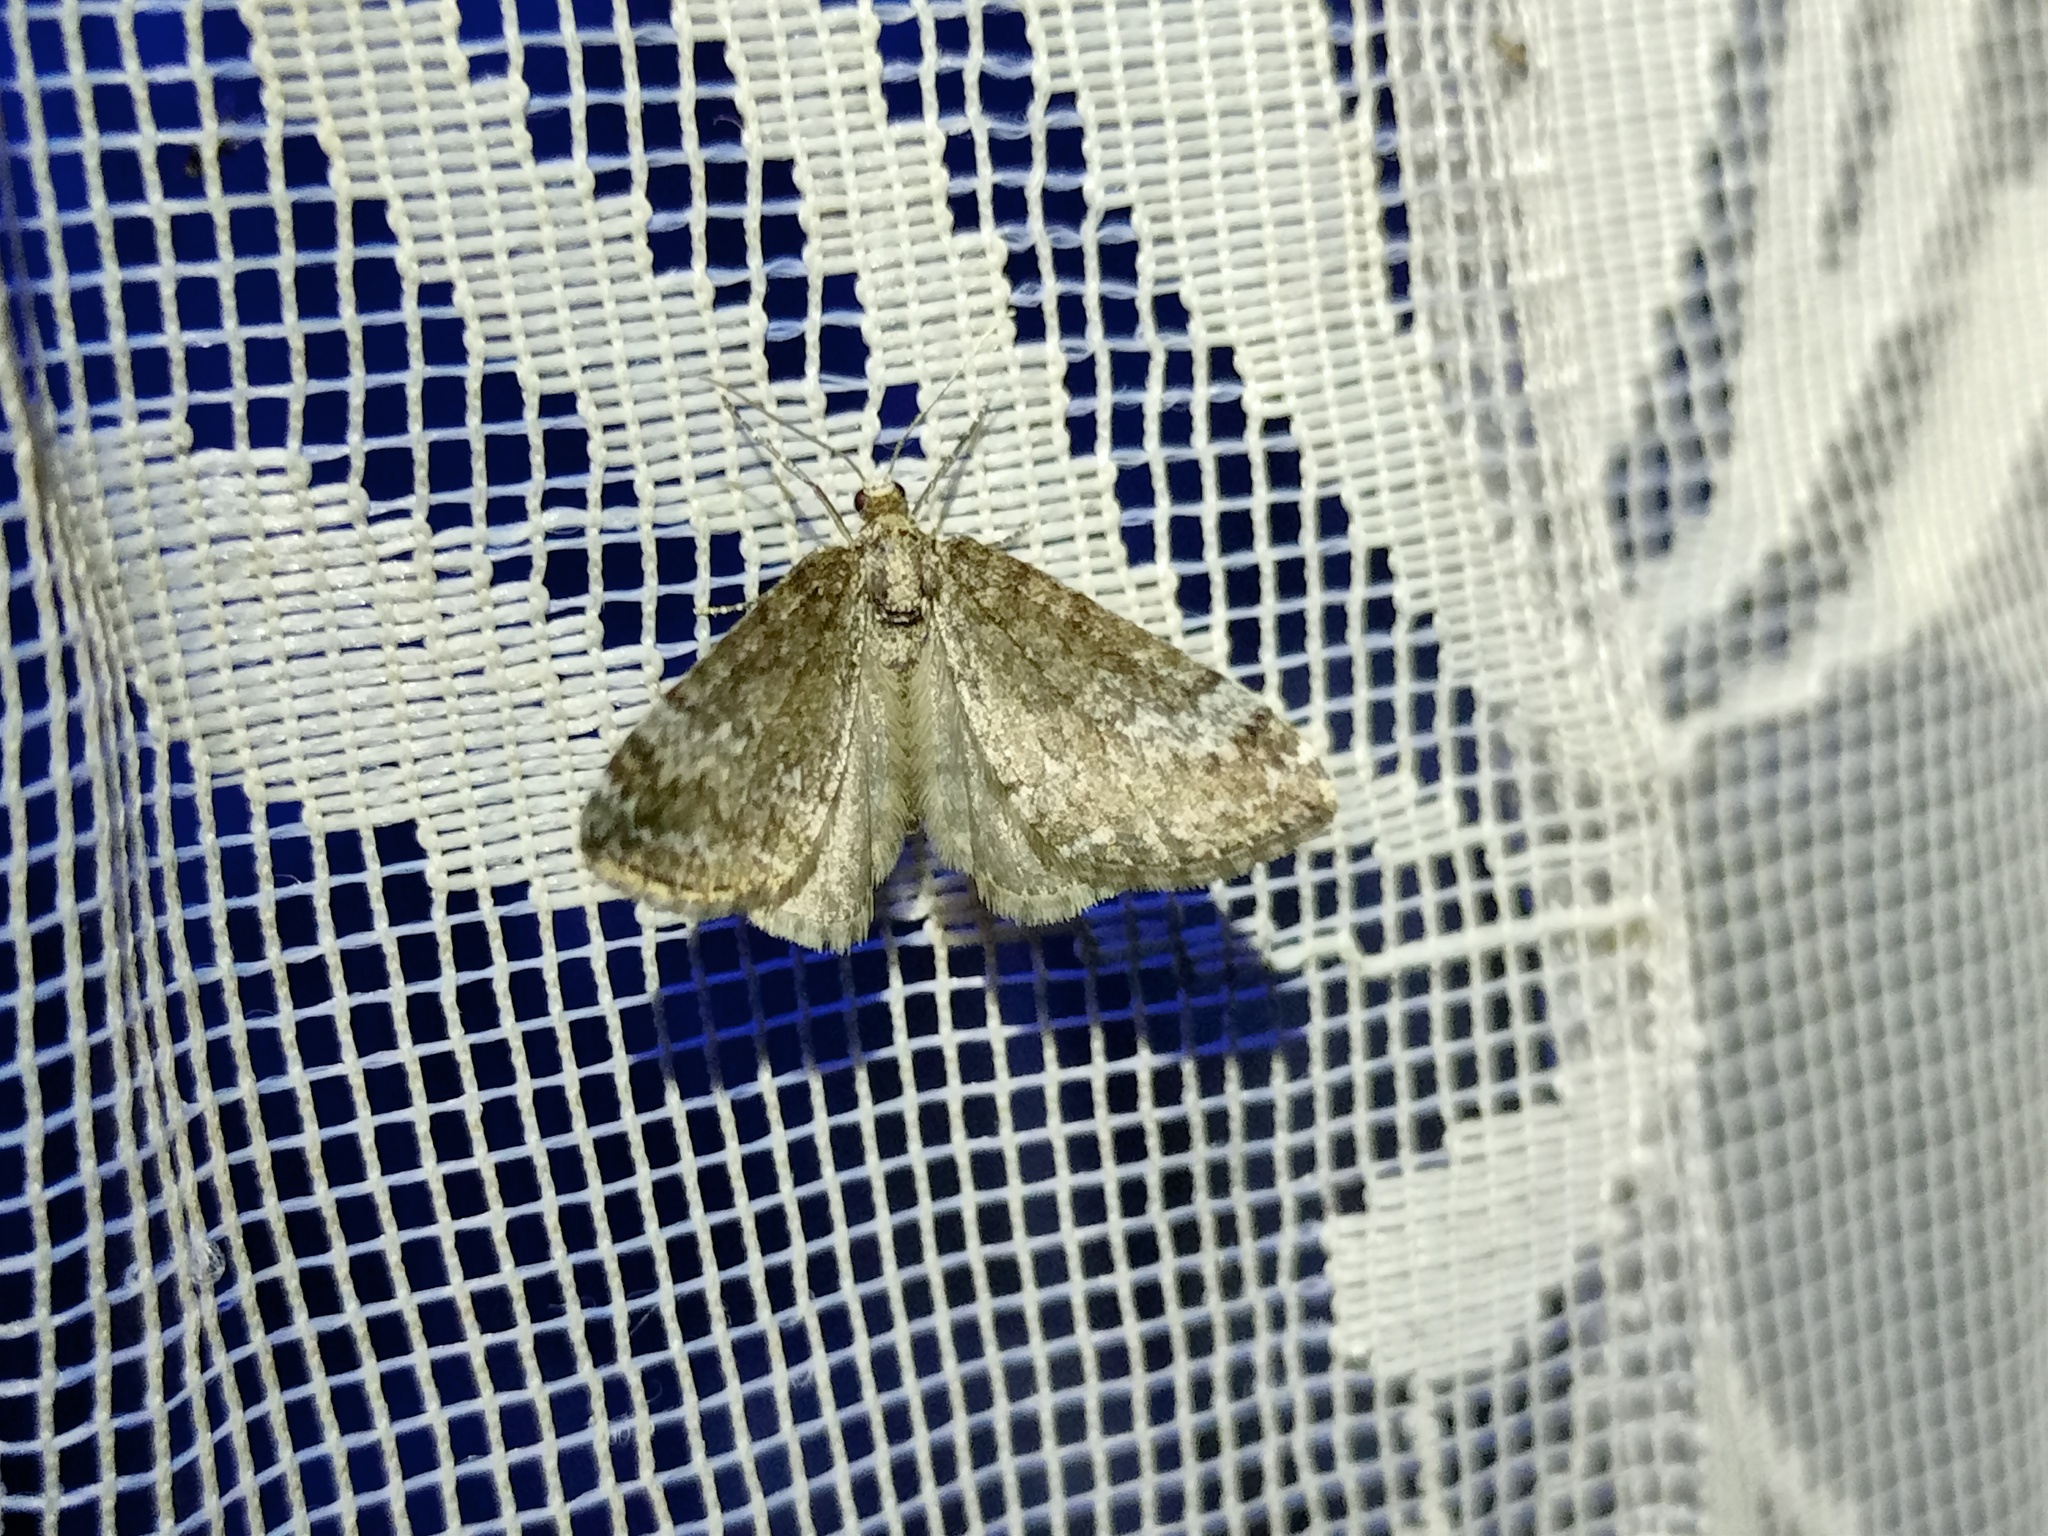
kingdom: Animalia
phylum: Arthropoda
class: Insecta
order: Lepidoptera
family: Geometridae
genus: Perizoma
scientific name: Perizoma hydrata
